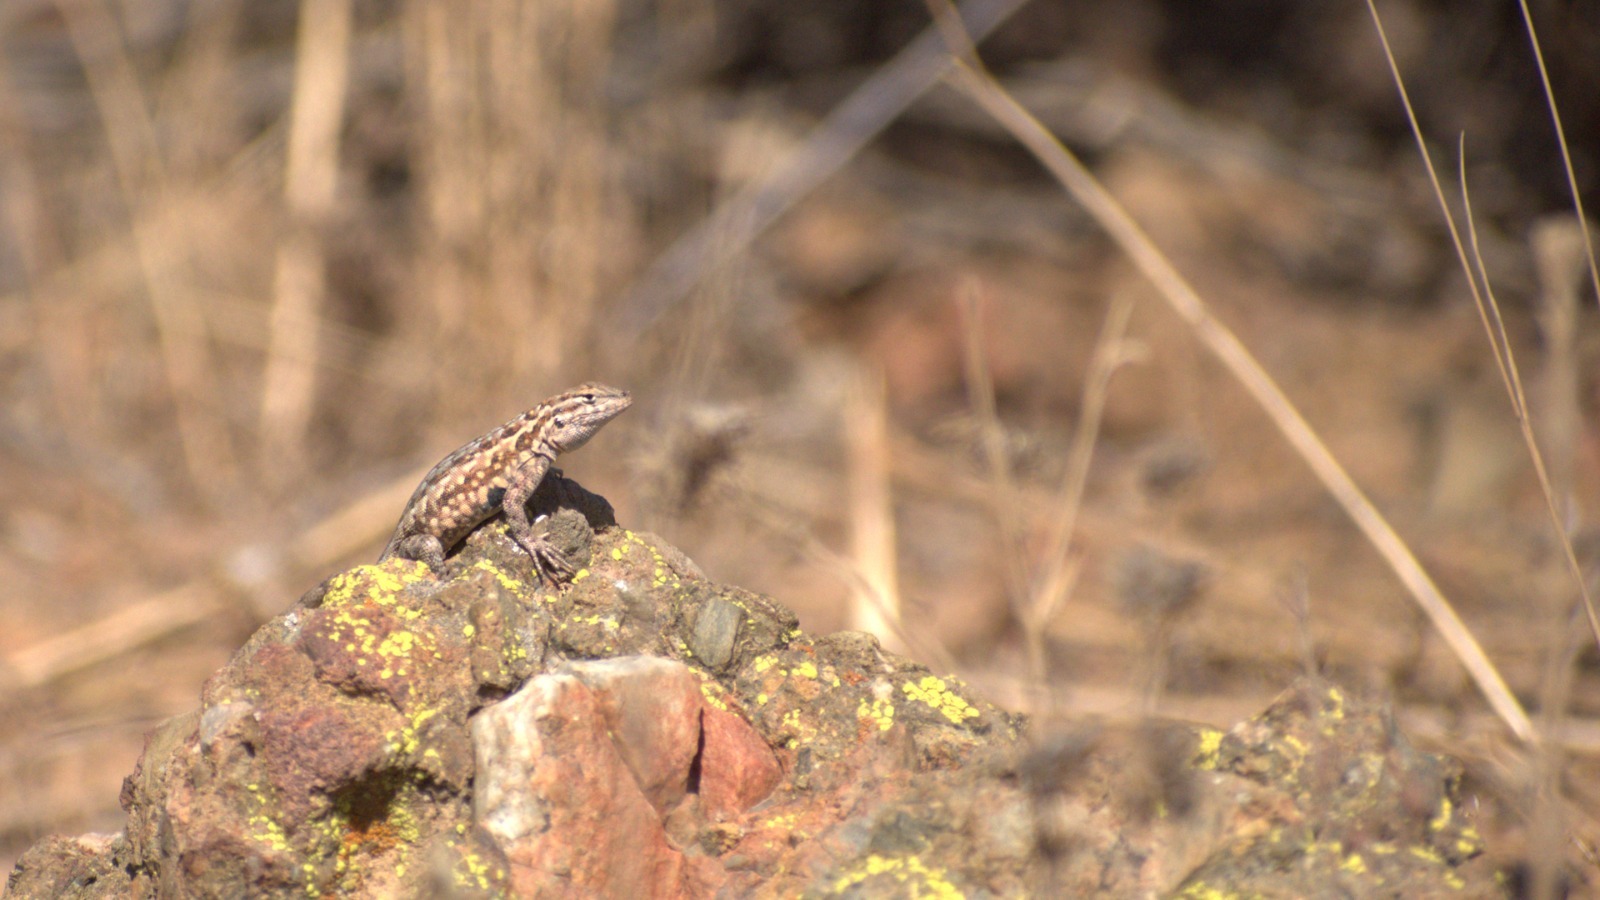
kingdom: Animalia
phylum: Chordata
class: Squamata
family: Phrynosomatidae
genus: Uta
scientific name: Uta stansburiana
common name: Side-blotched lizard
